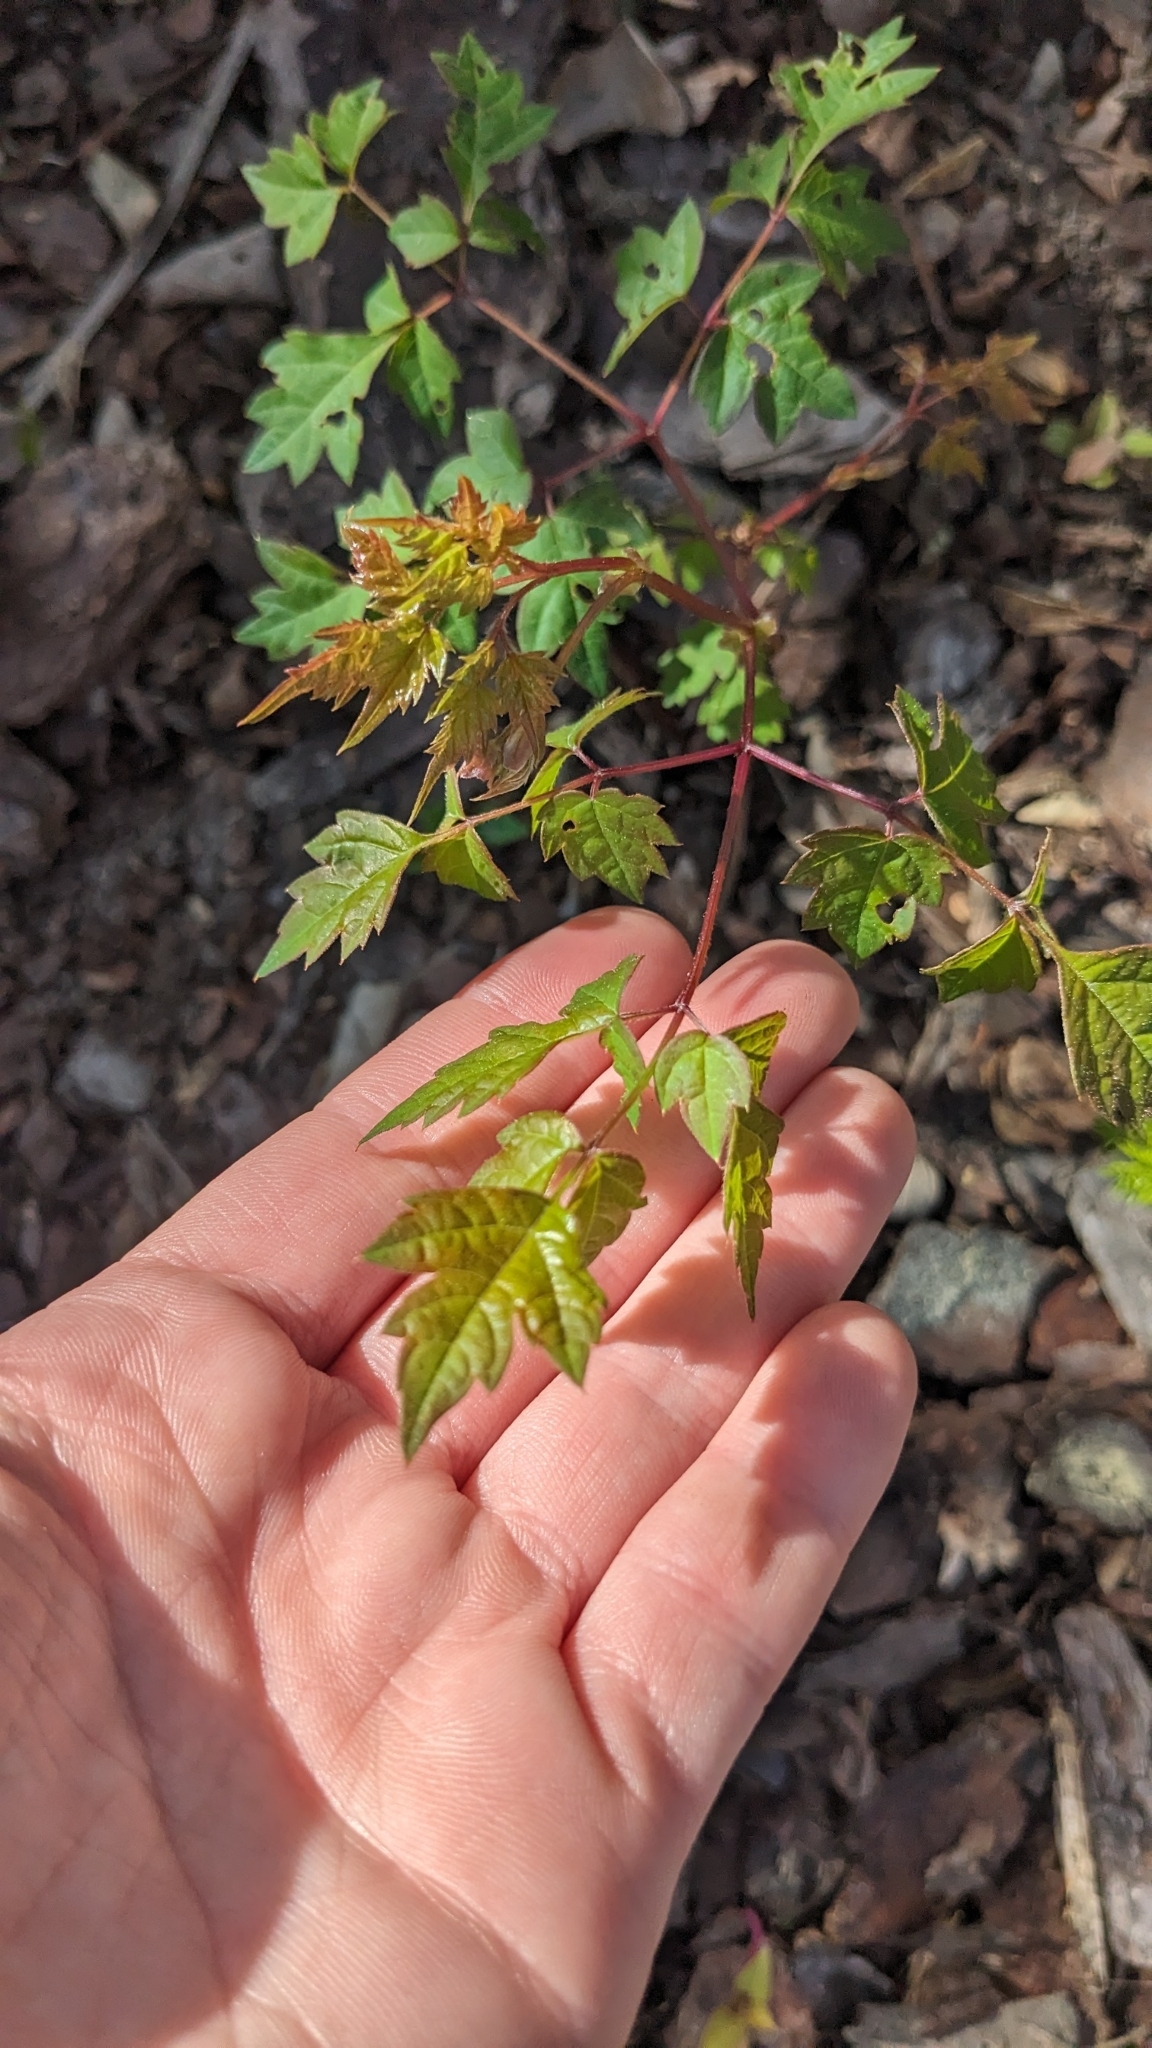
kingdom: Plantae
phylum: Tracheophyta
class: Magnoliopsida
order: Vitales
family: Vitaceae
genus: Nekemias
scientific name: Nekemias arborea
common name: Peppervine
